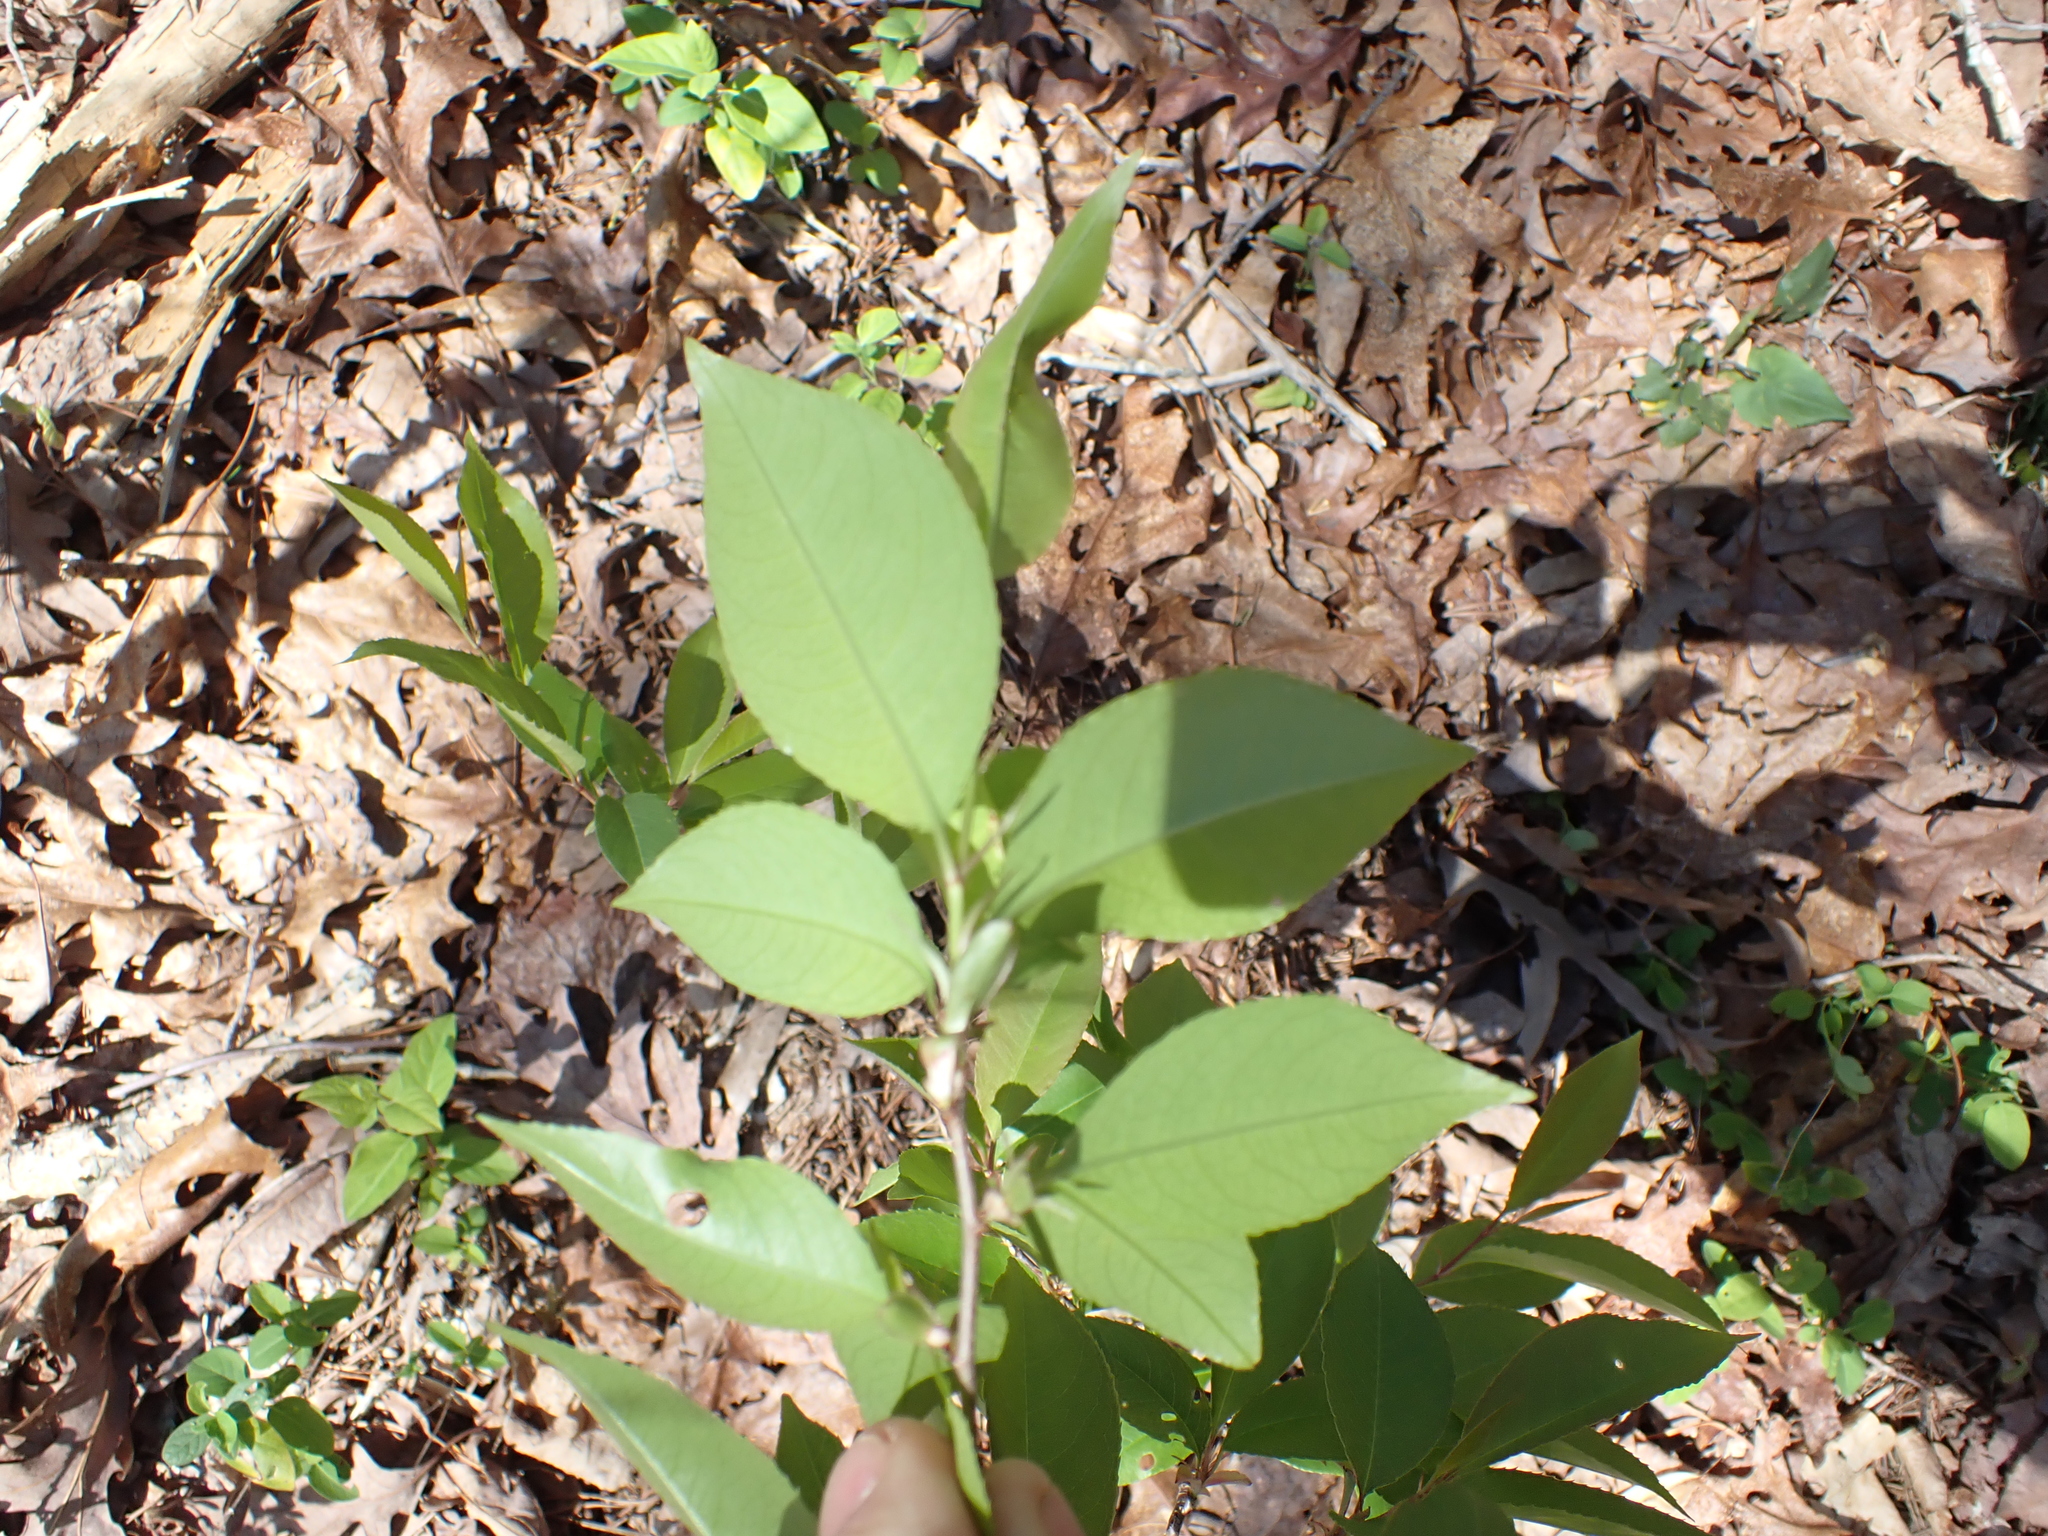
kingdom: Plantae
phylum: Tracheophyta
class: Magnoliopsida
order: Rosales
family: Rosaceae
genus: Prunus
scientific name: Prunus serotina
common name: Black cherry
